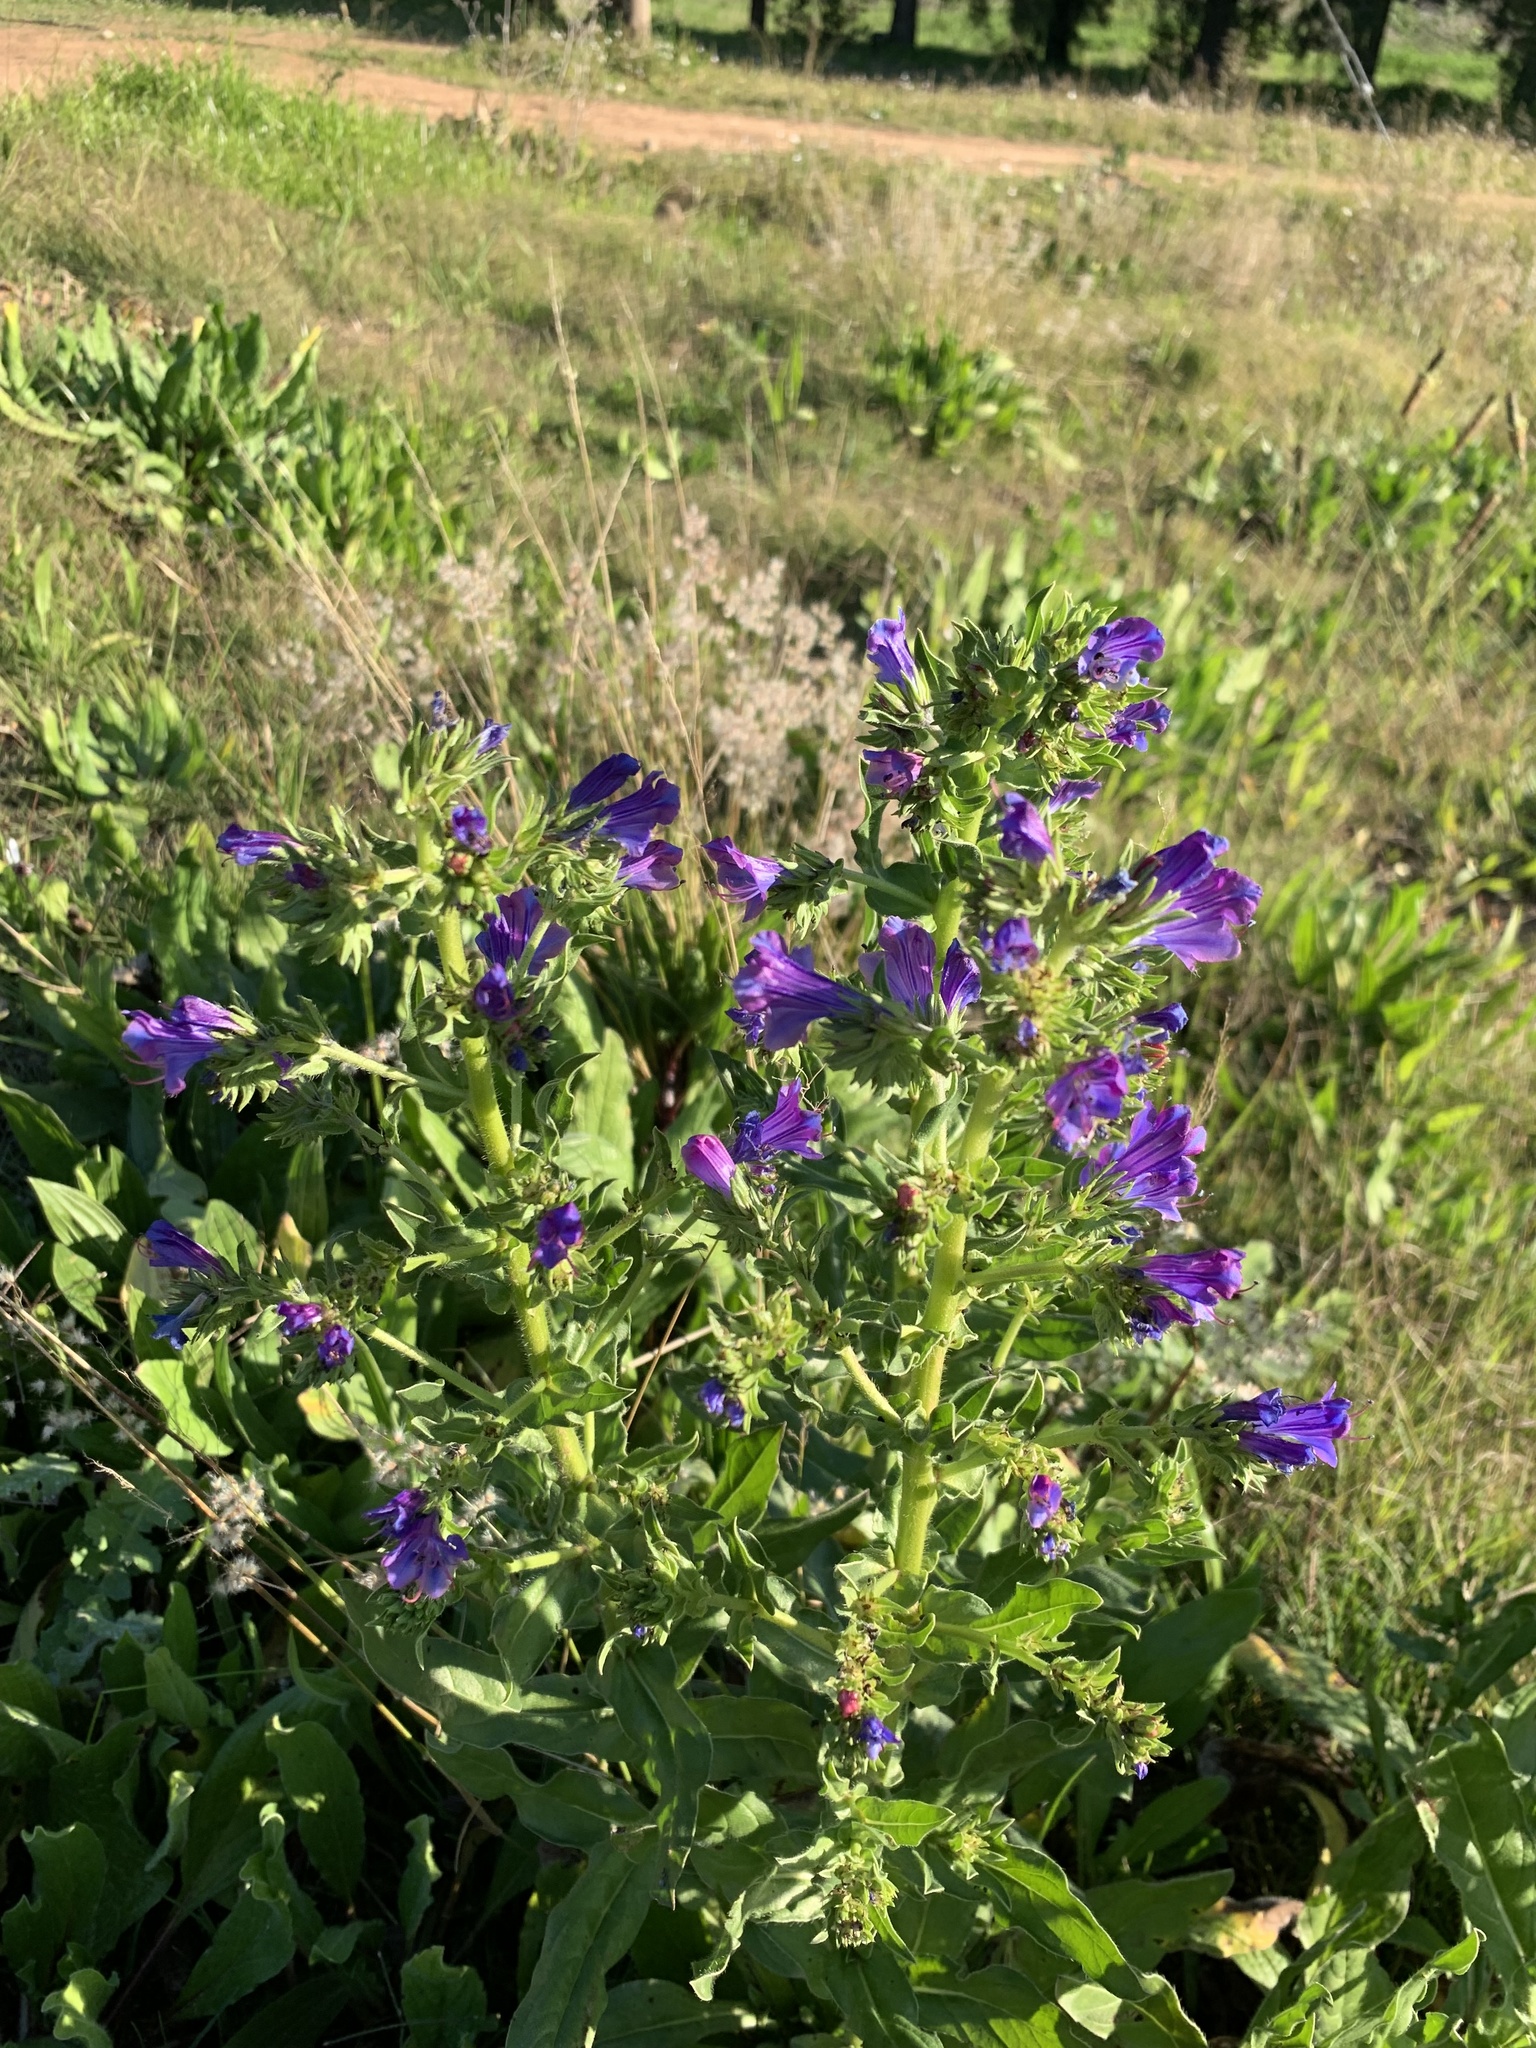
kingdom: Plantae
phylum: Tracheophyta
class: Magnoliopsida
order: Boraginales
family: Boraginaceae
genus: Echium
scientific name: Echium plantagineum
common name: Purple viper's-bugloss
